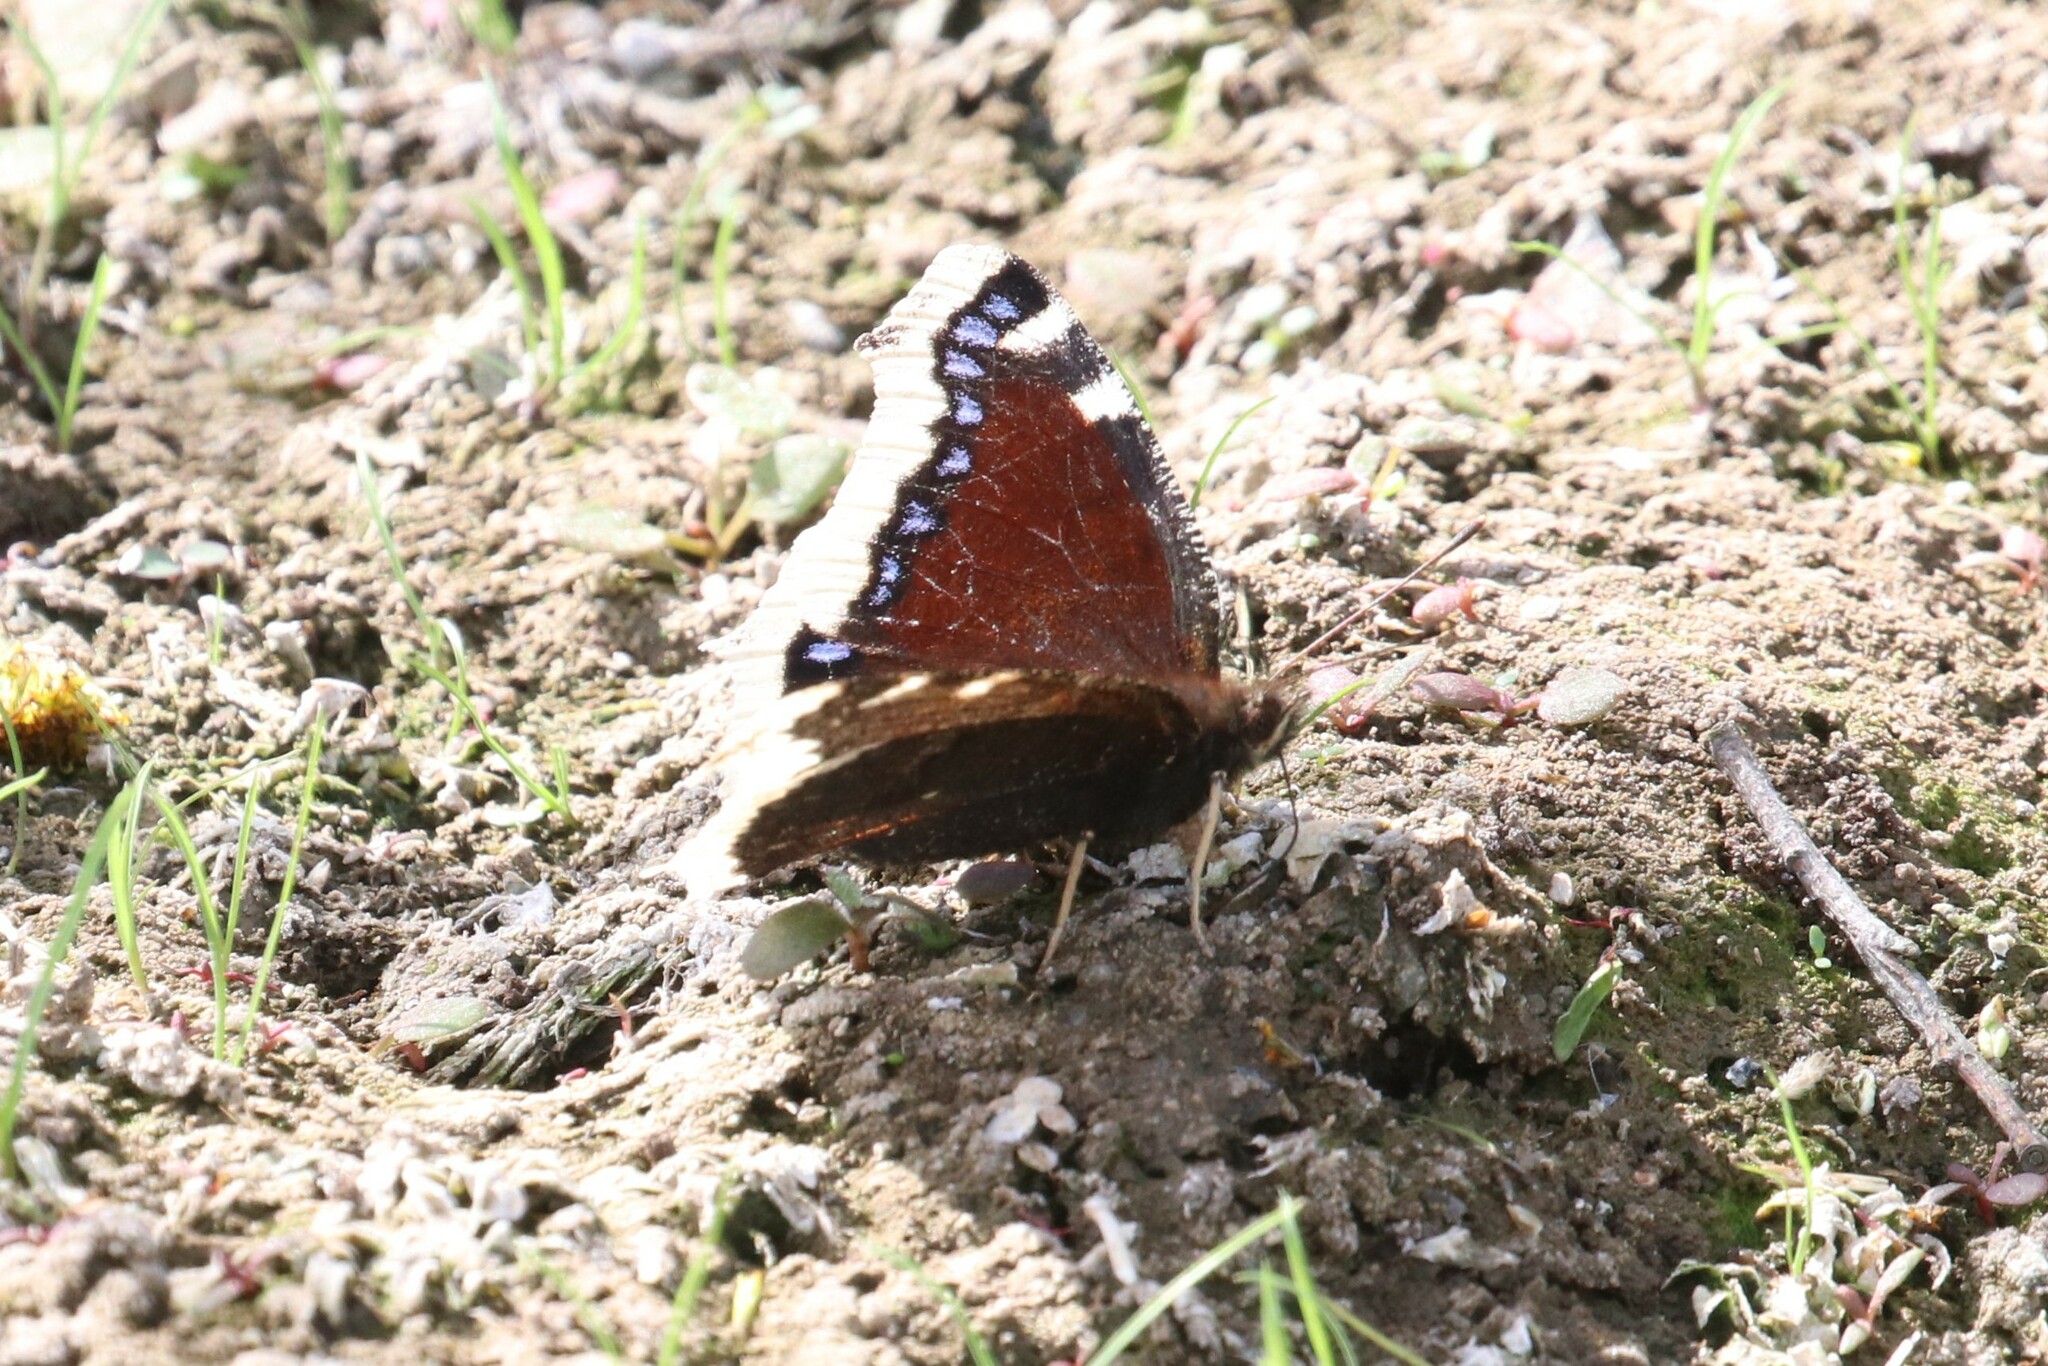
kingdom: Animalia
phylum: Arthropoda
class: Insecta
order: Lepidoptera
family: Nymphalidae
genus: Nymphalis
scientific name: Nymphalis antiopa
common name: Camberwell beauty
